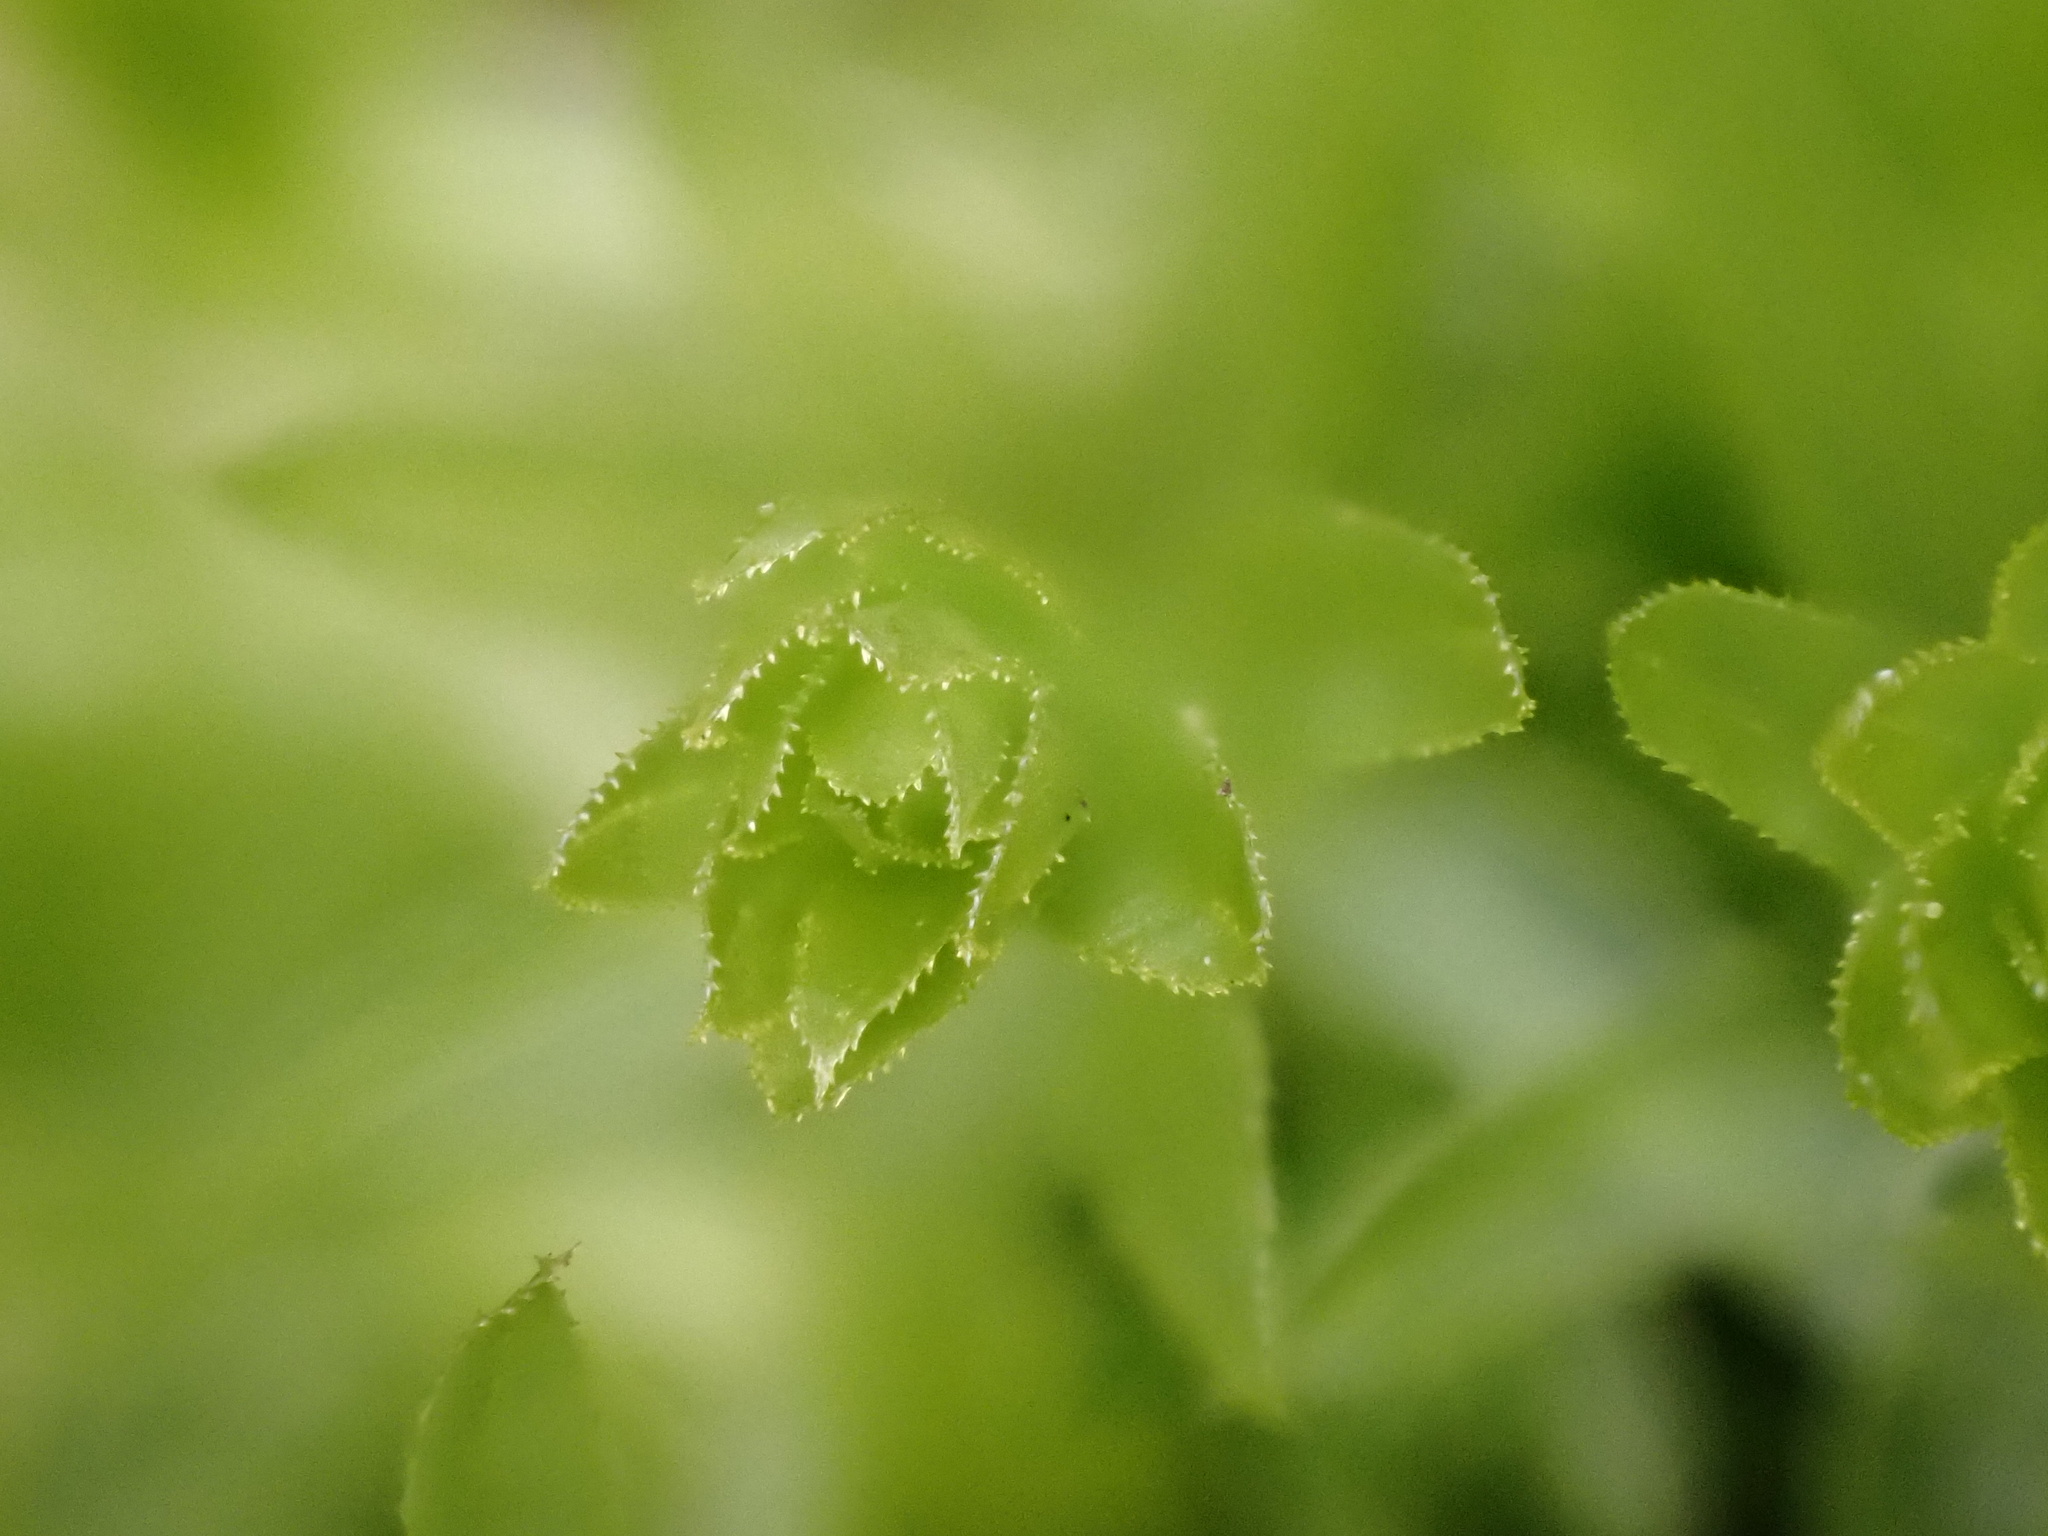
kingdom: Plantae
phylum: Bryophyta
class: Bryopsida
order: Bryales
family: Mniaceae
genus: Mnium
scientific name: Mnium hornum
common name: Swan's-neck leafy moss
